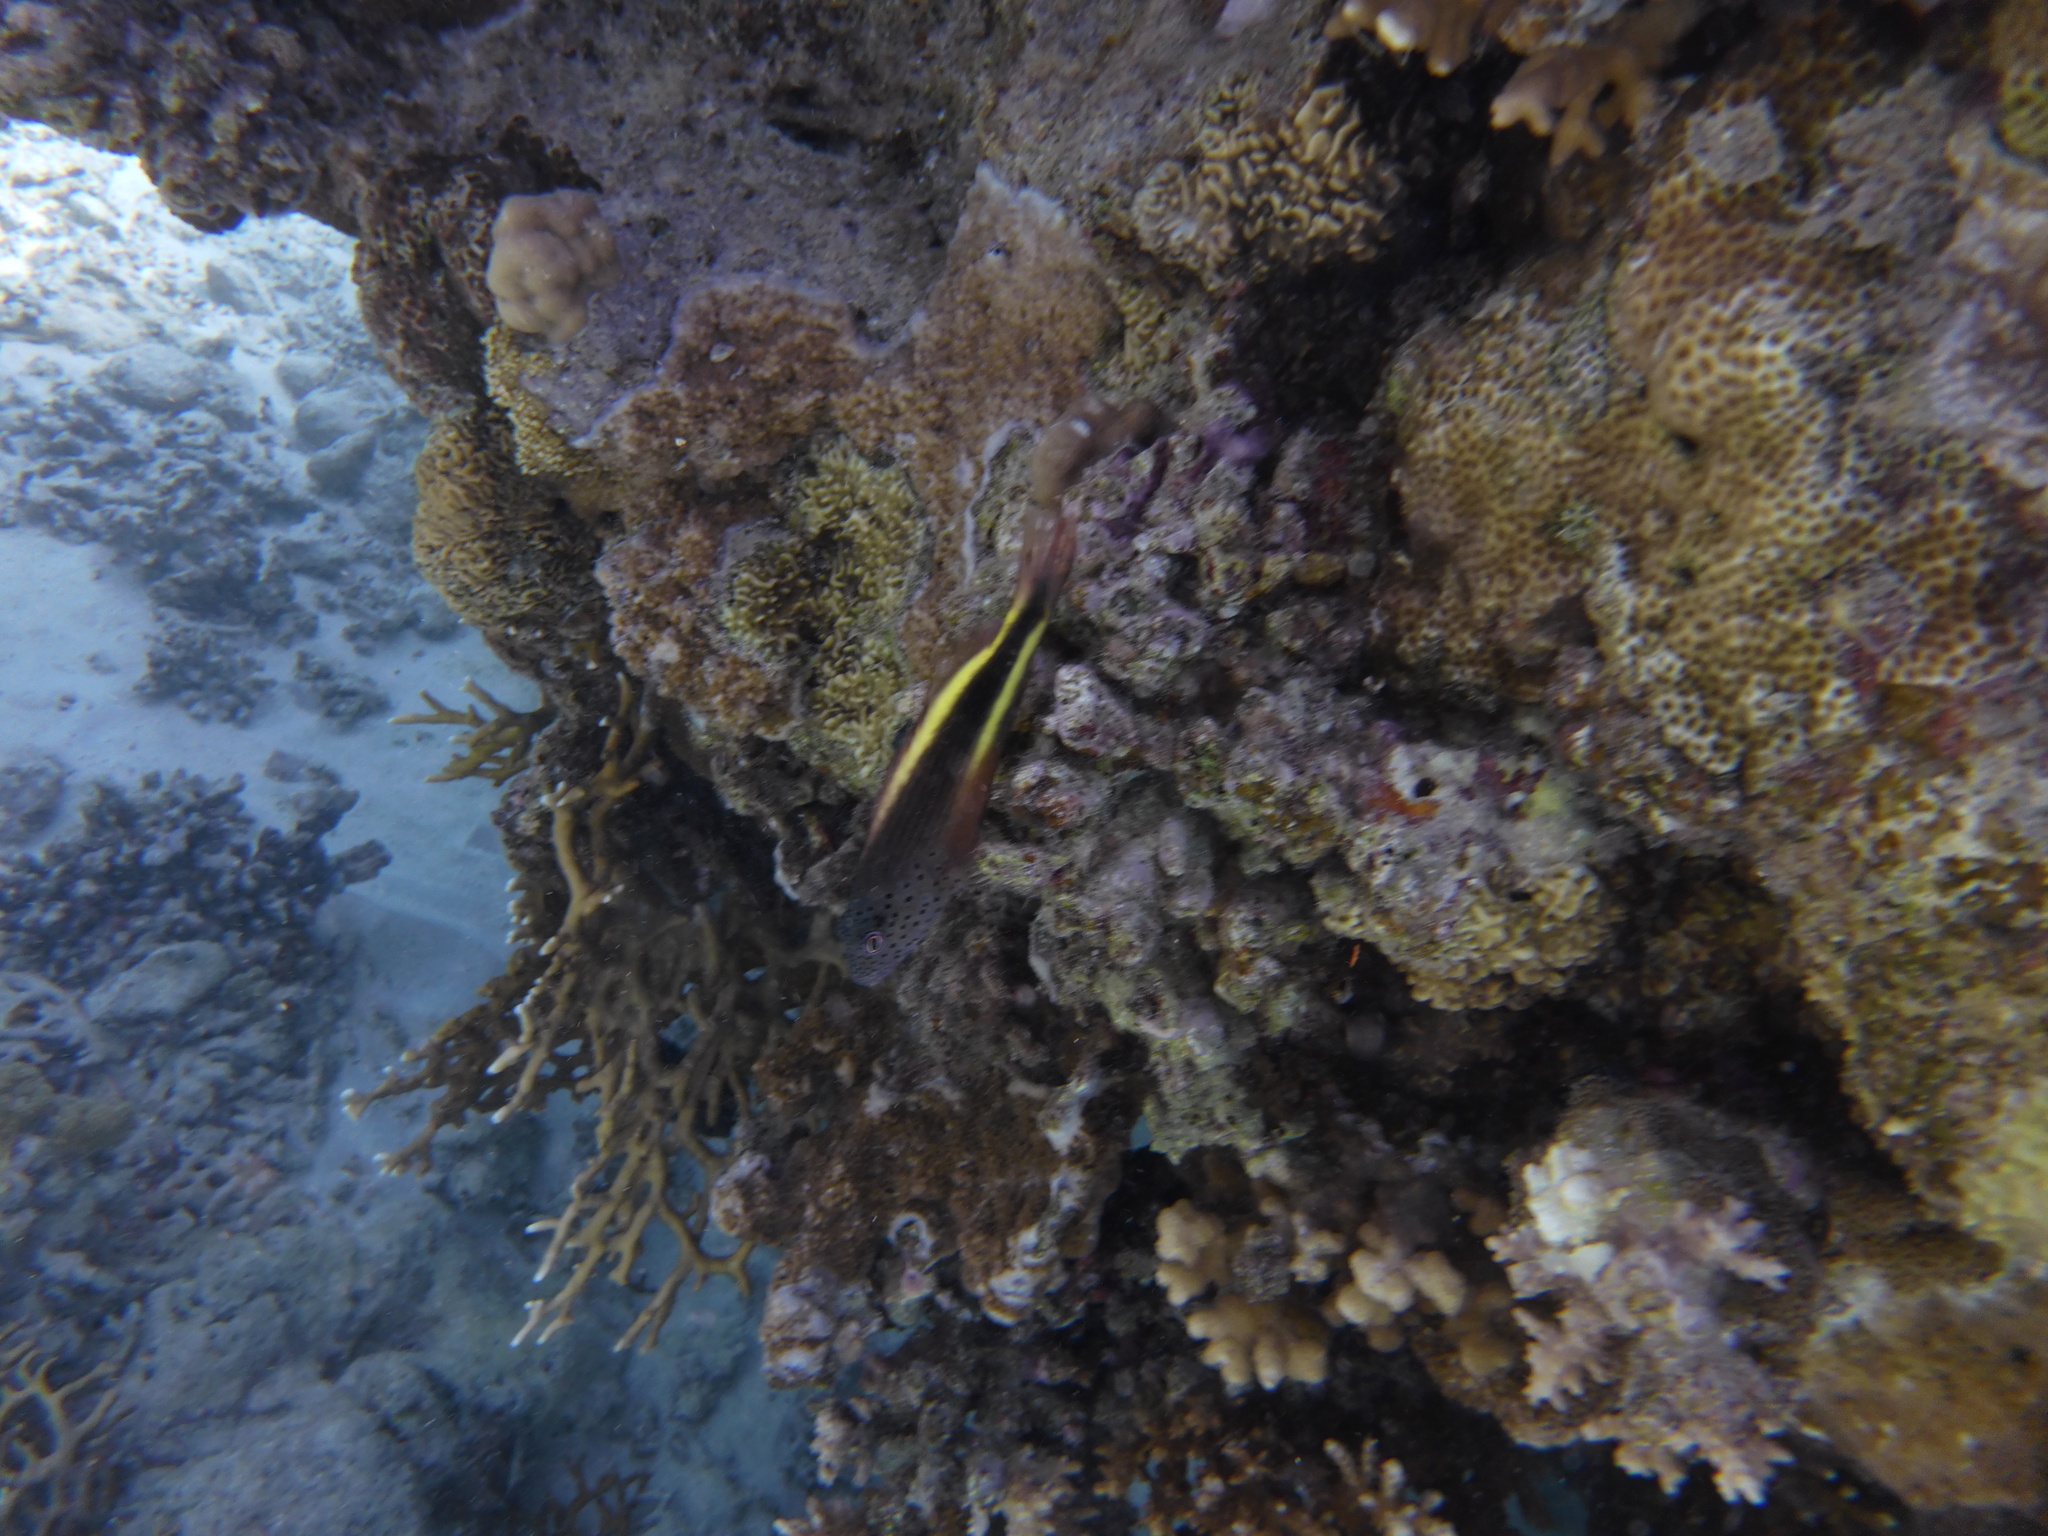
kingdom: Animalia
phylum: Chordata
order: Perciformes
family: Cirrhitidae
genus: Paracirrhites
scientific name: Paracirrhites forsteri
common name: Freckled hawkfish
